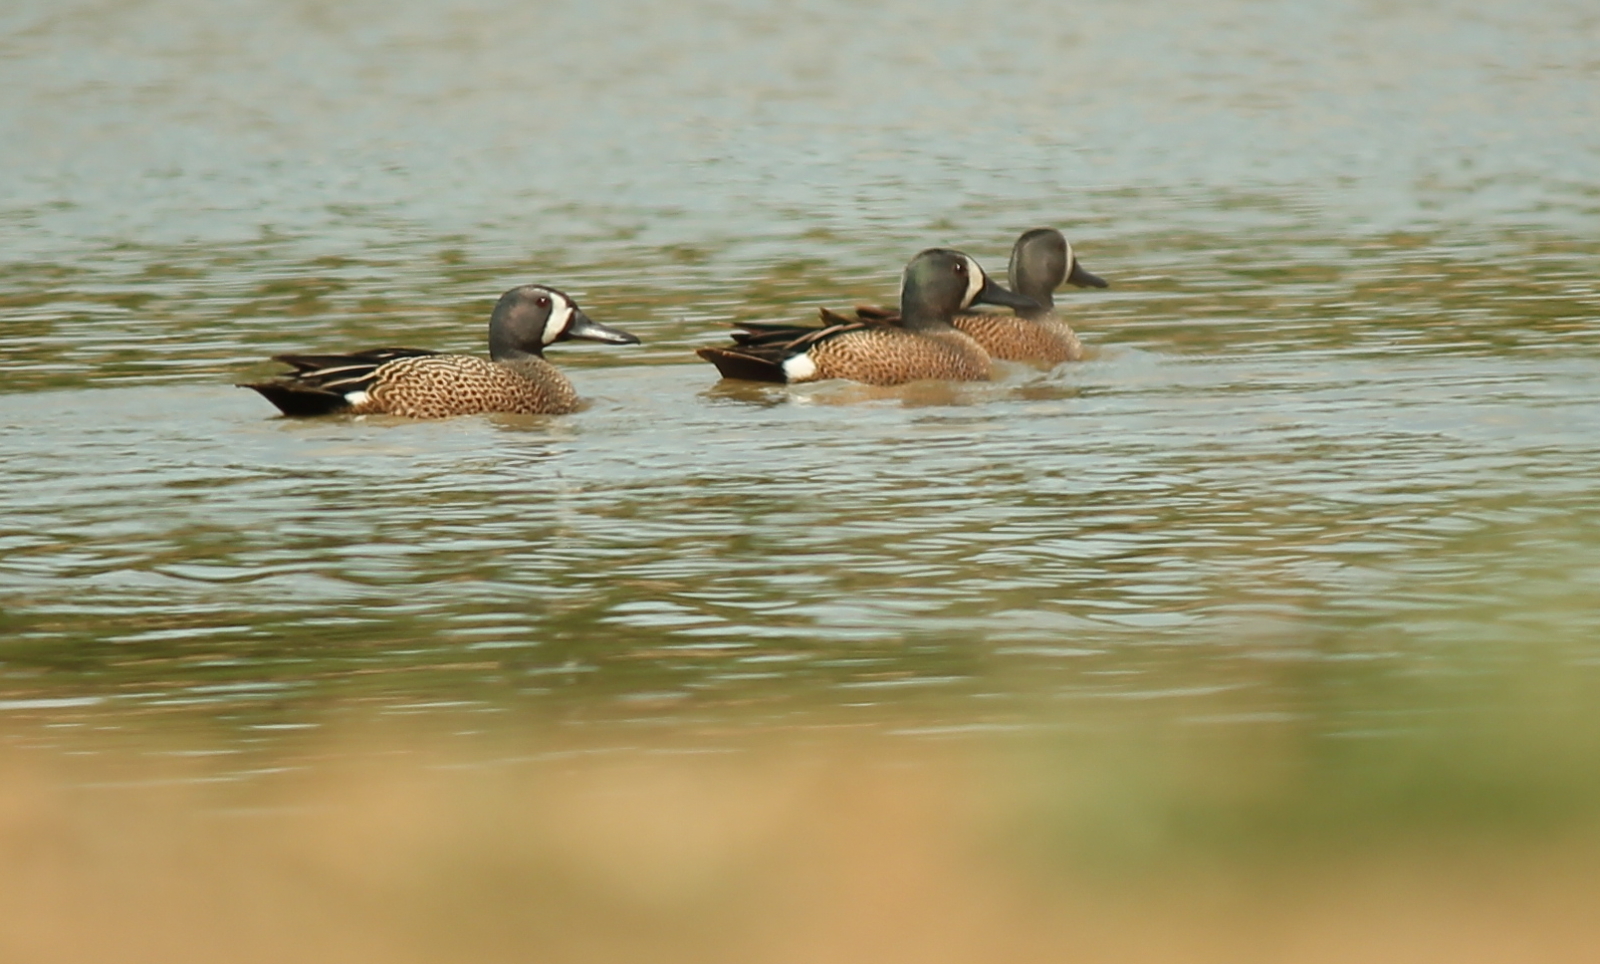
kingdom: Animalia
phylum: Chordata
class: Aves
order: Anseriformes
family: Anatidae
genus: Spatula
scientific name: Spatula discors
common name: Blue-winged teal
